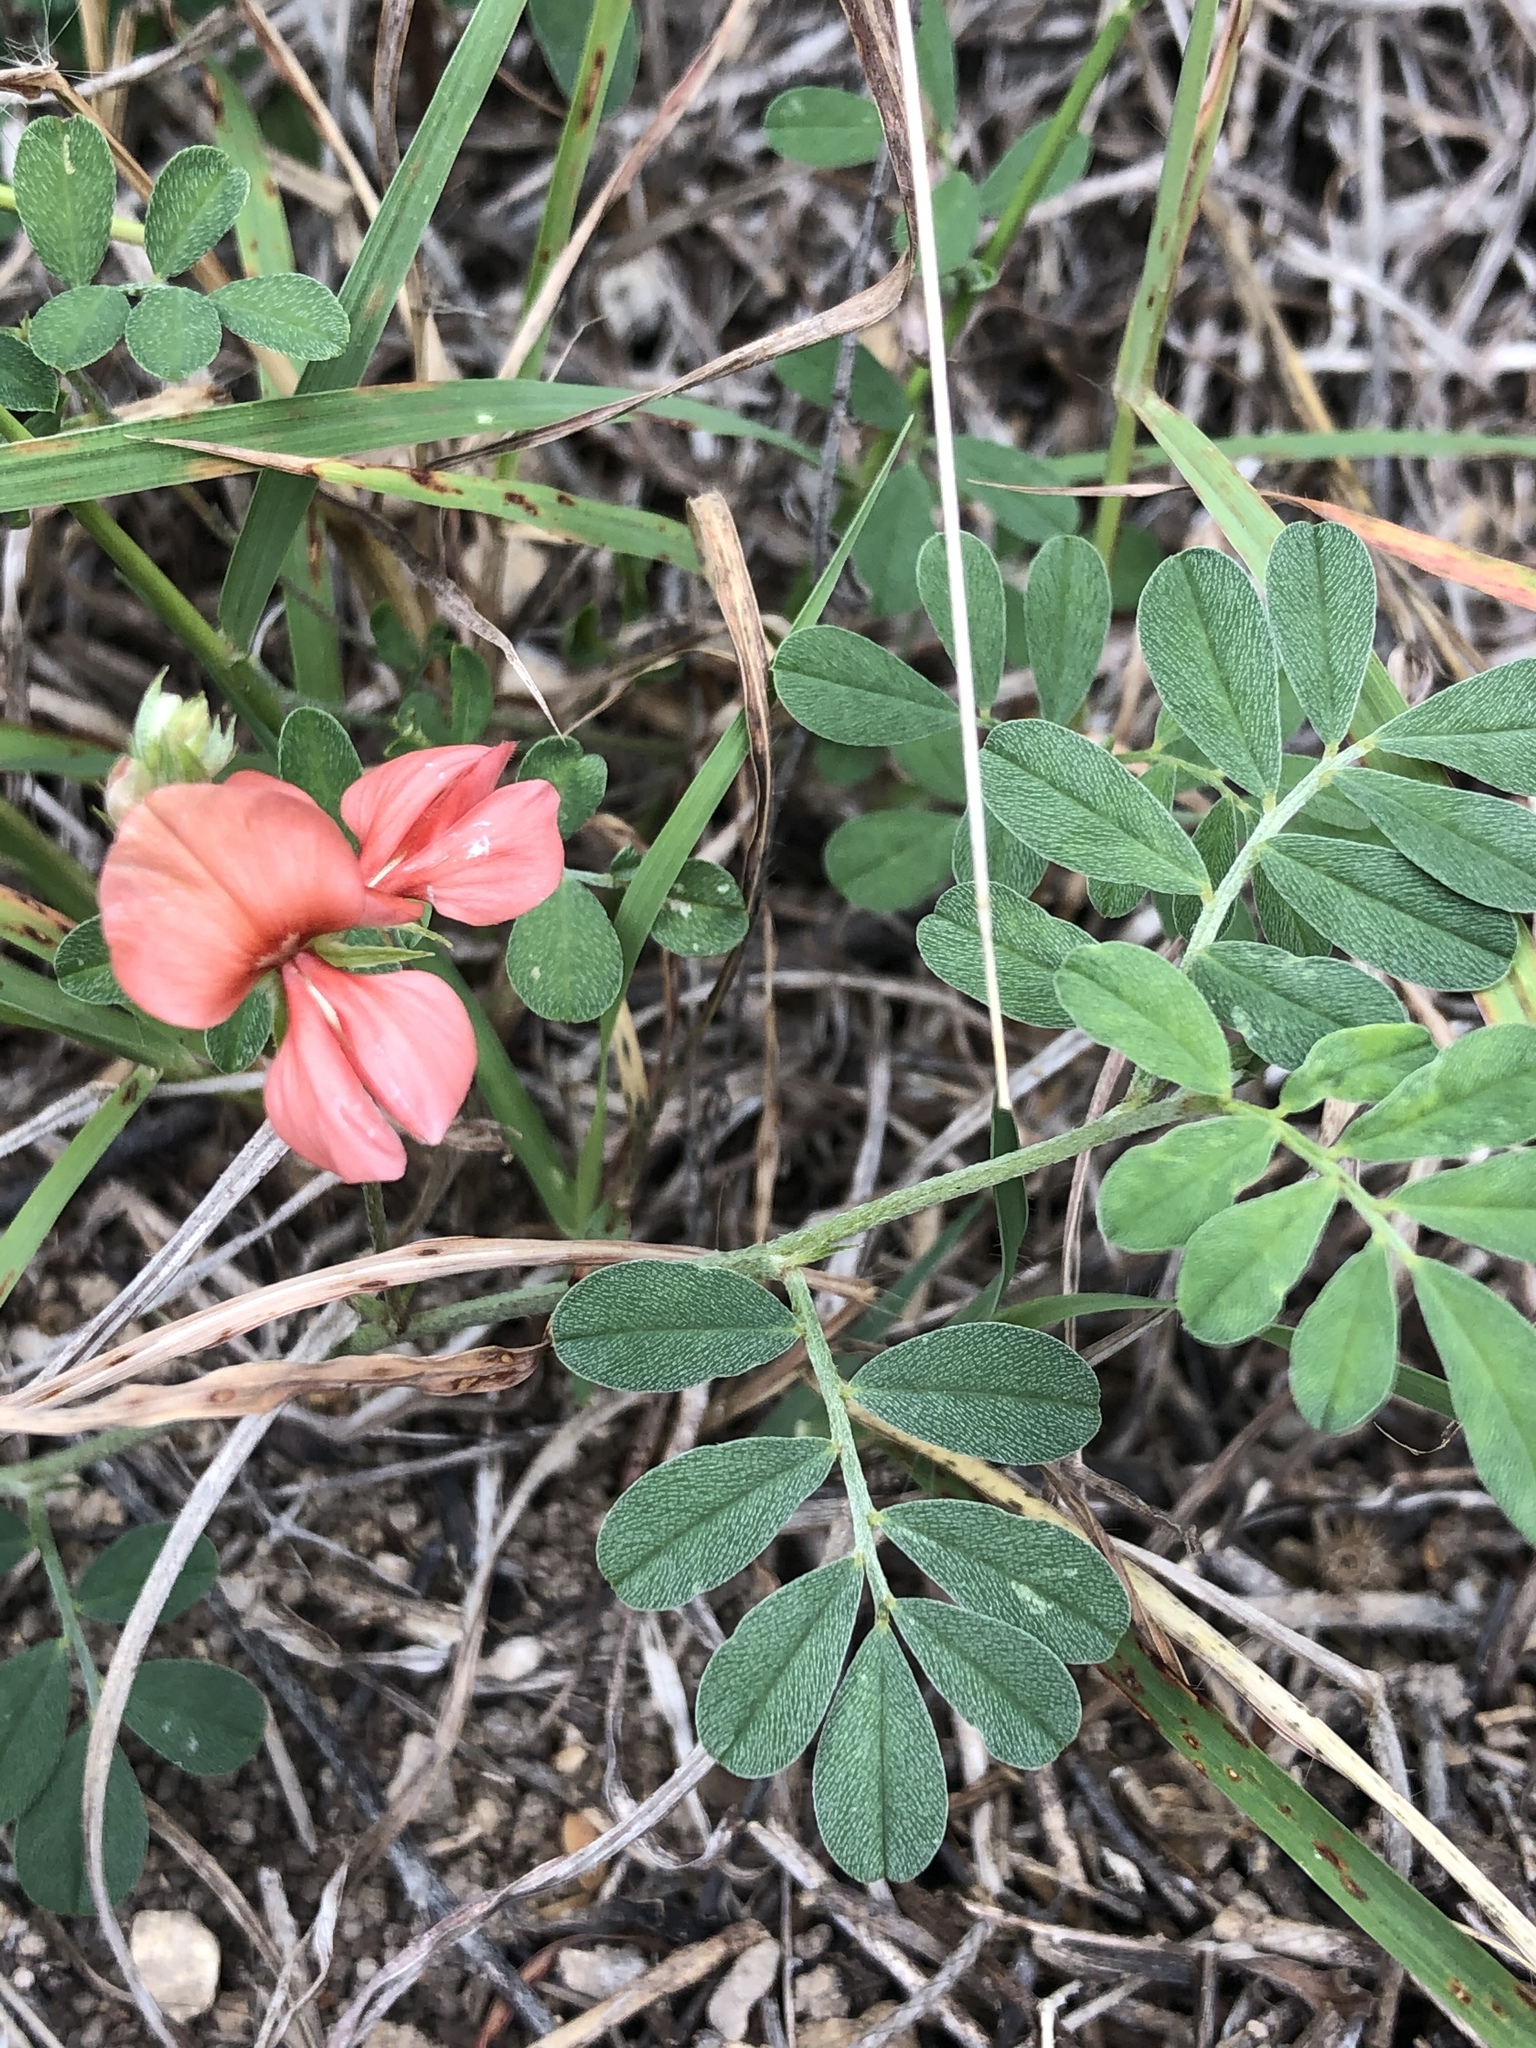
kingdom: Plantae
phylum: Tracheophyta
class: Magnoliopsida
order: Fabales
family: Fabaceae
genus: Indigofera
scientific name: Indigofera miniata
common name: Coast indigo
